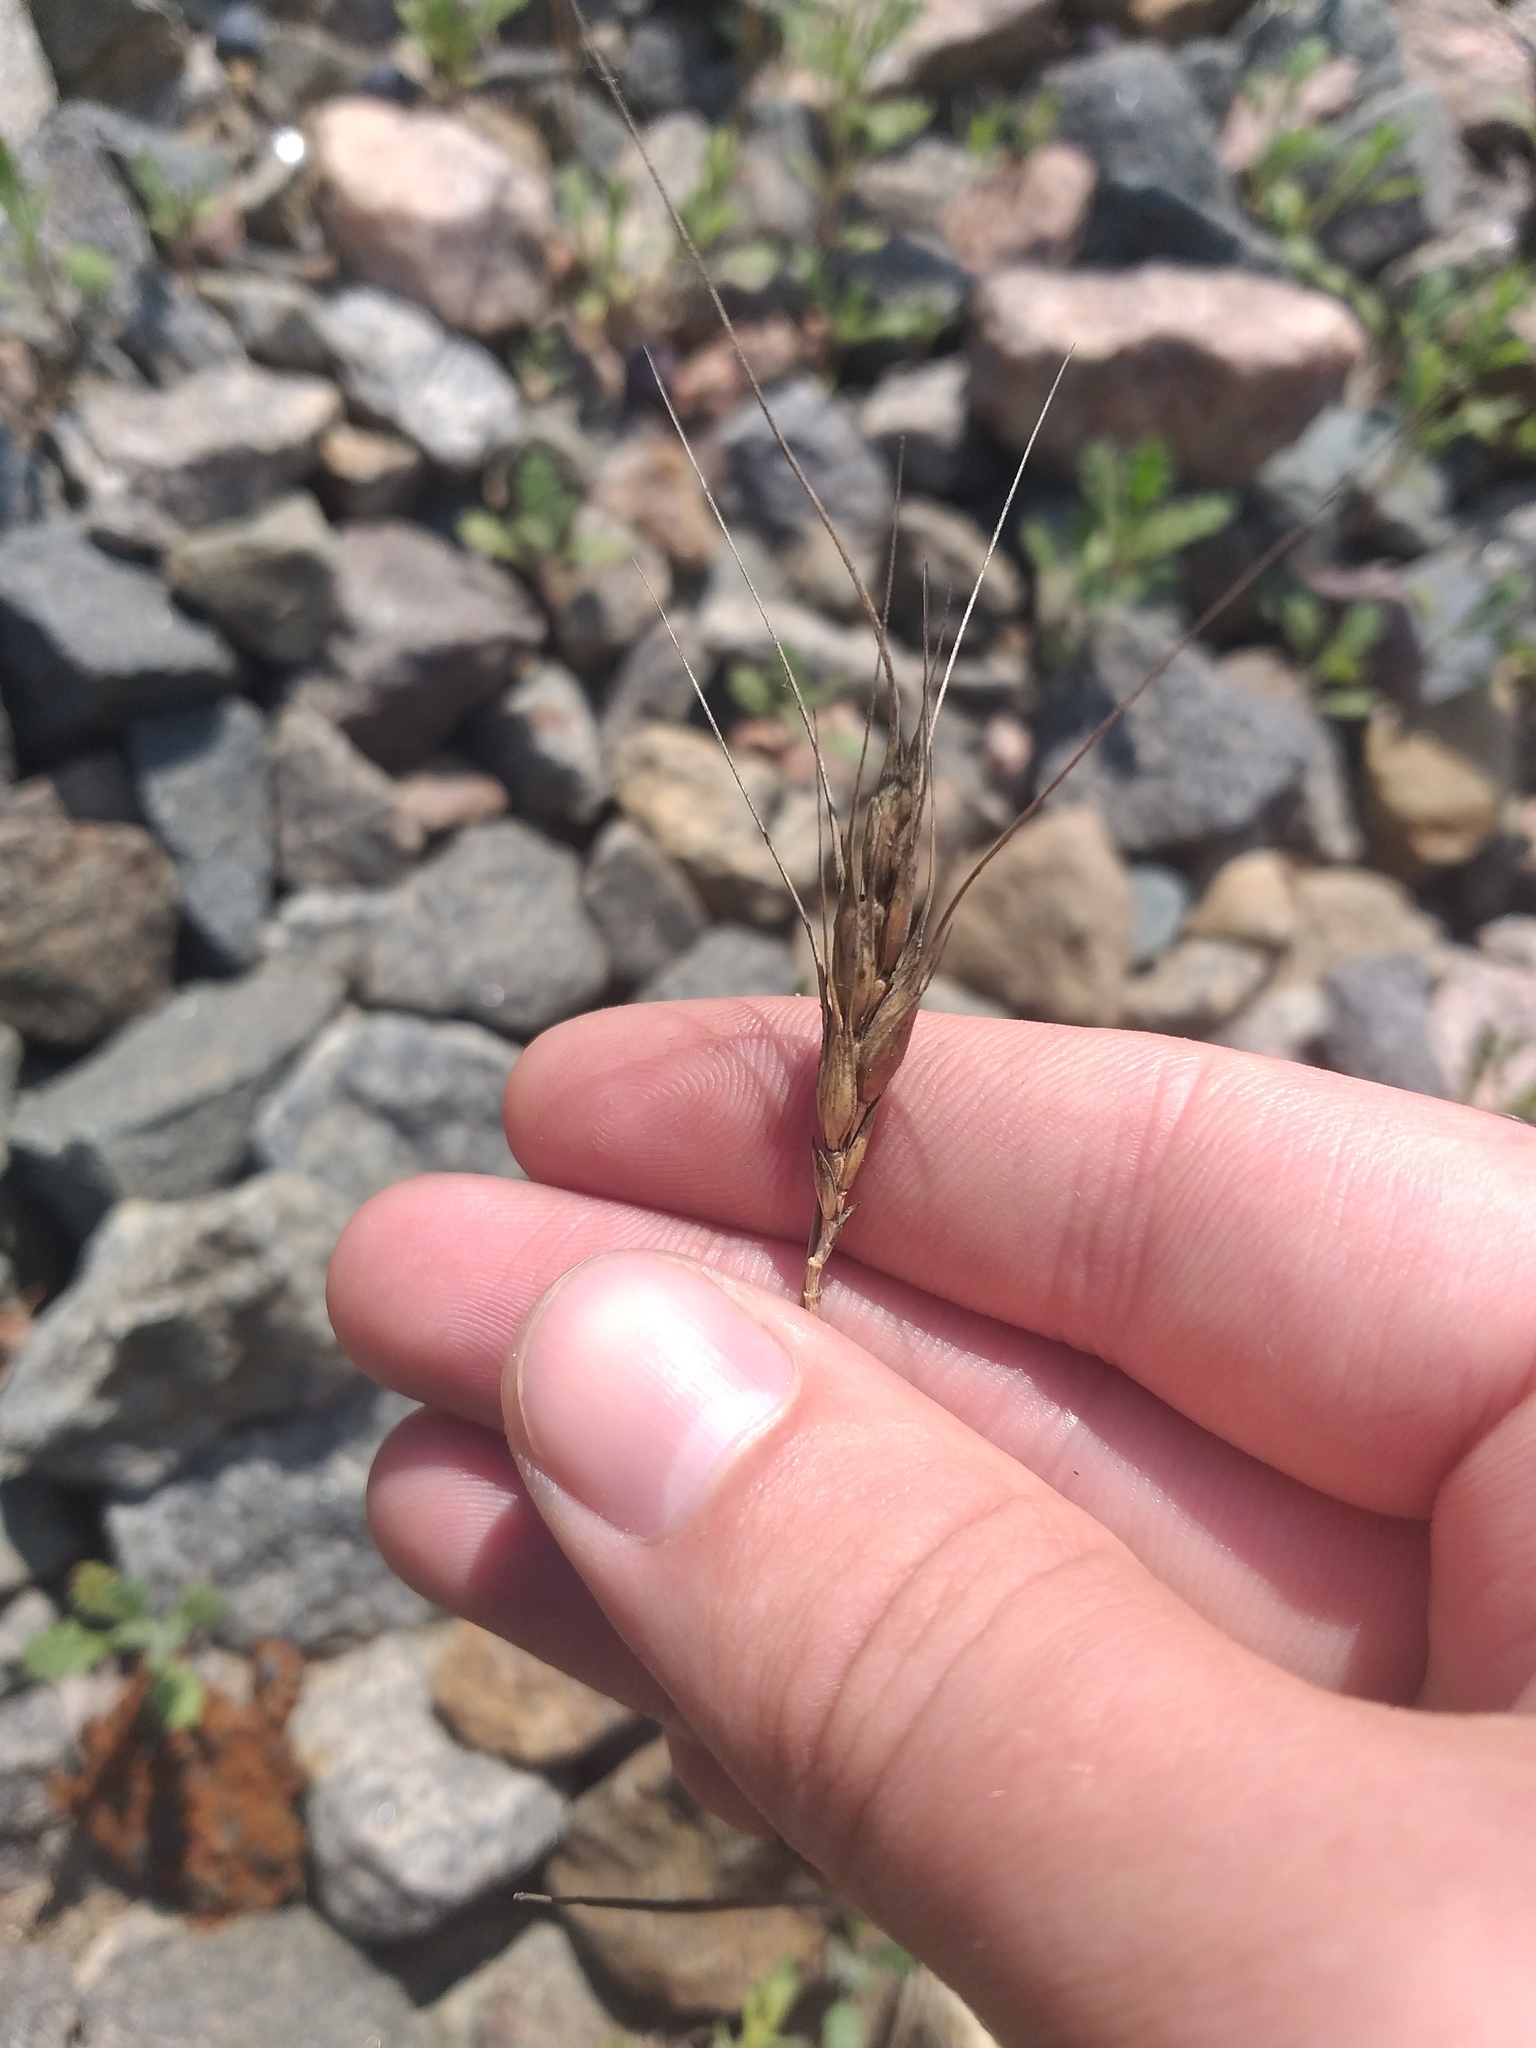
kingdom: Plantae
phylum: Tracheophyta
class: Liliopsida
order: Poales
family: Poaceae
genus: Triticum
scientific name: Triticum aestivum
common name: Common wheat
